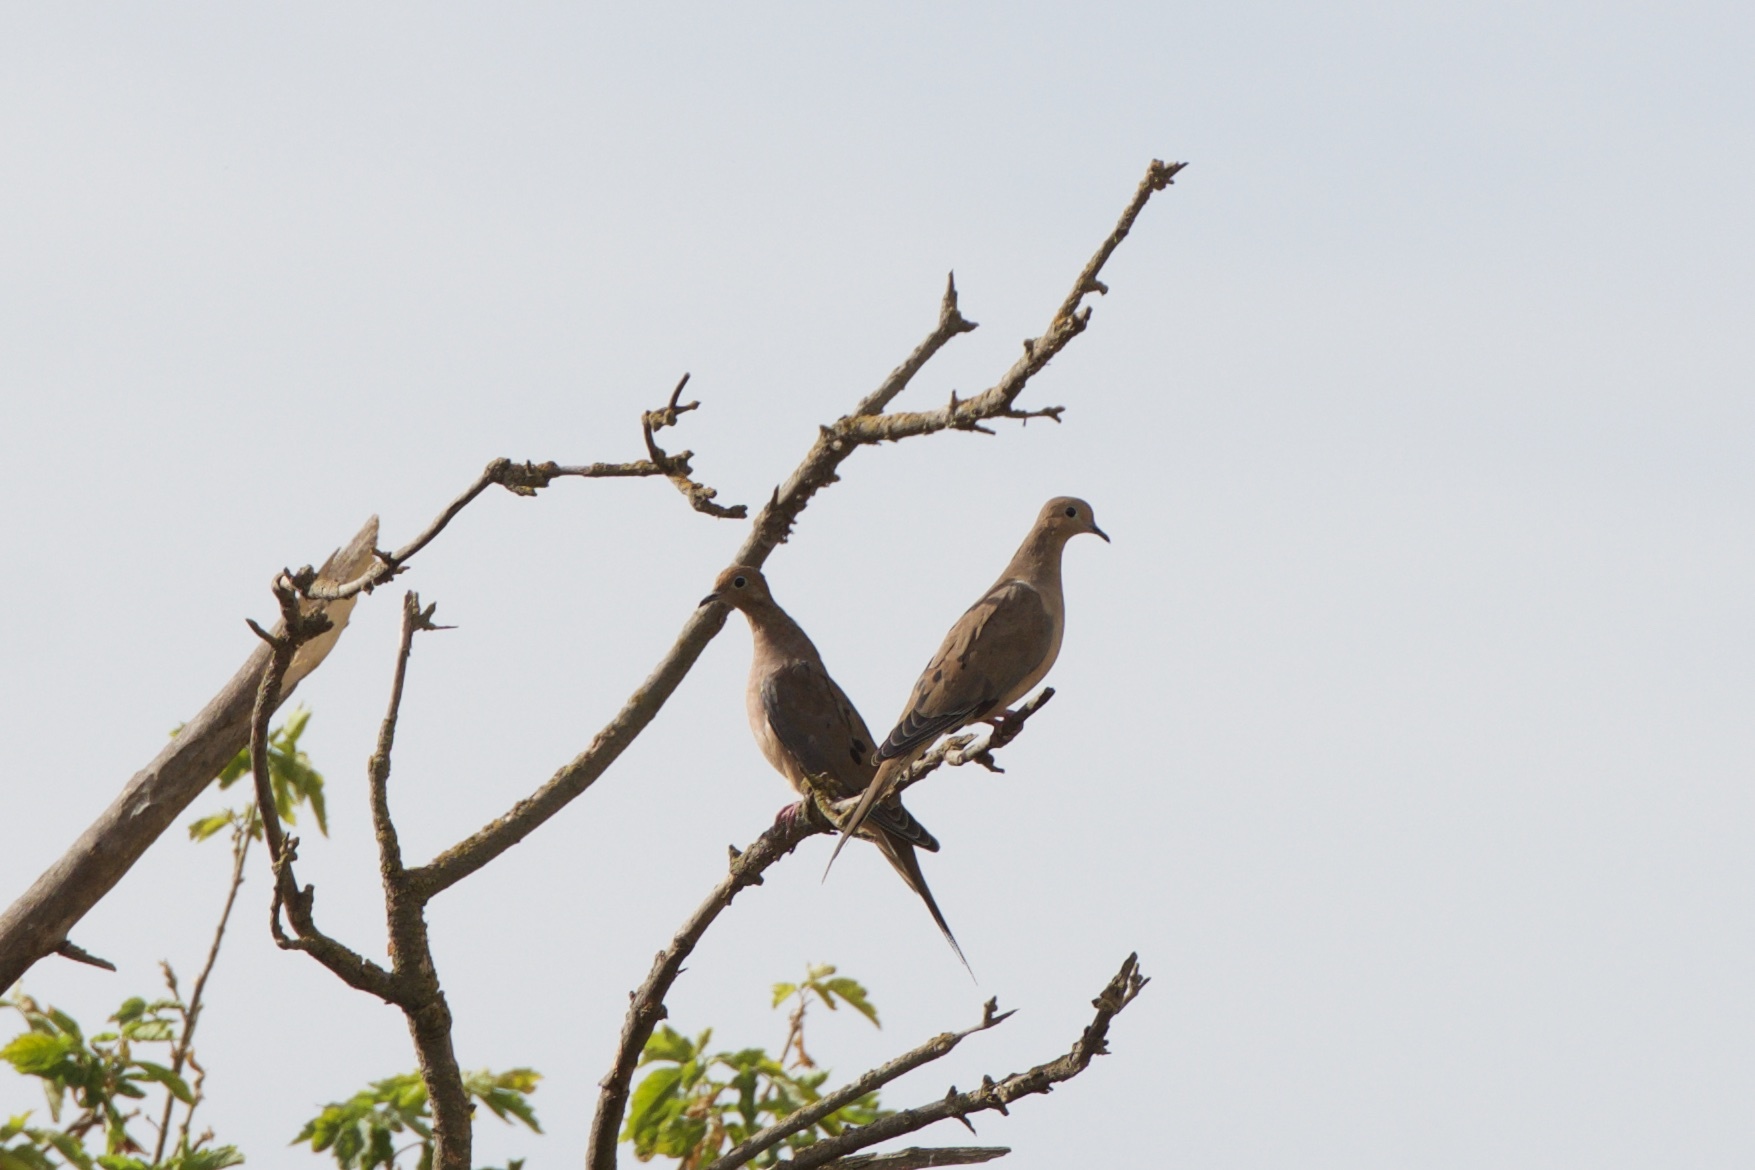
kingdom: Animalia
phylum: Chordata
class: Aves
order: Columbiformes
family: Columbidae
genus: Zenaida
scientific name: Zenaida macroura
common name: Mourning dove
